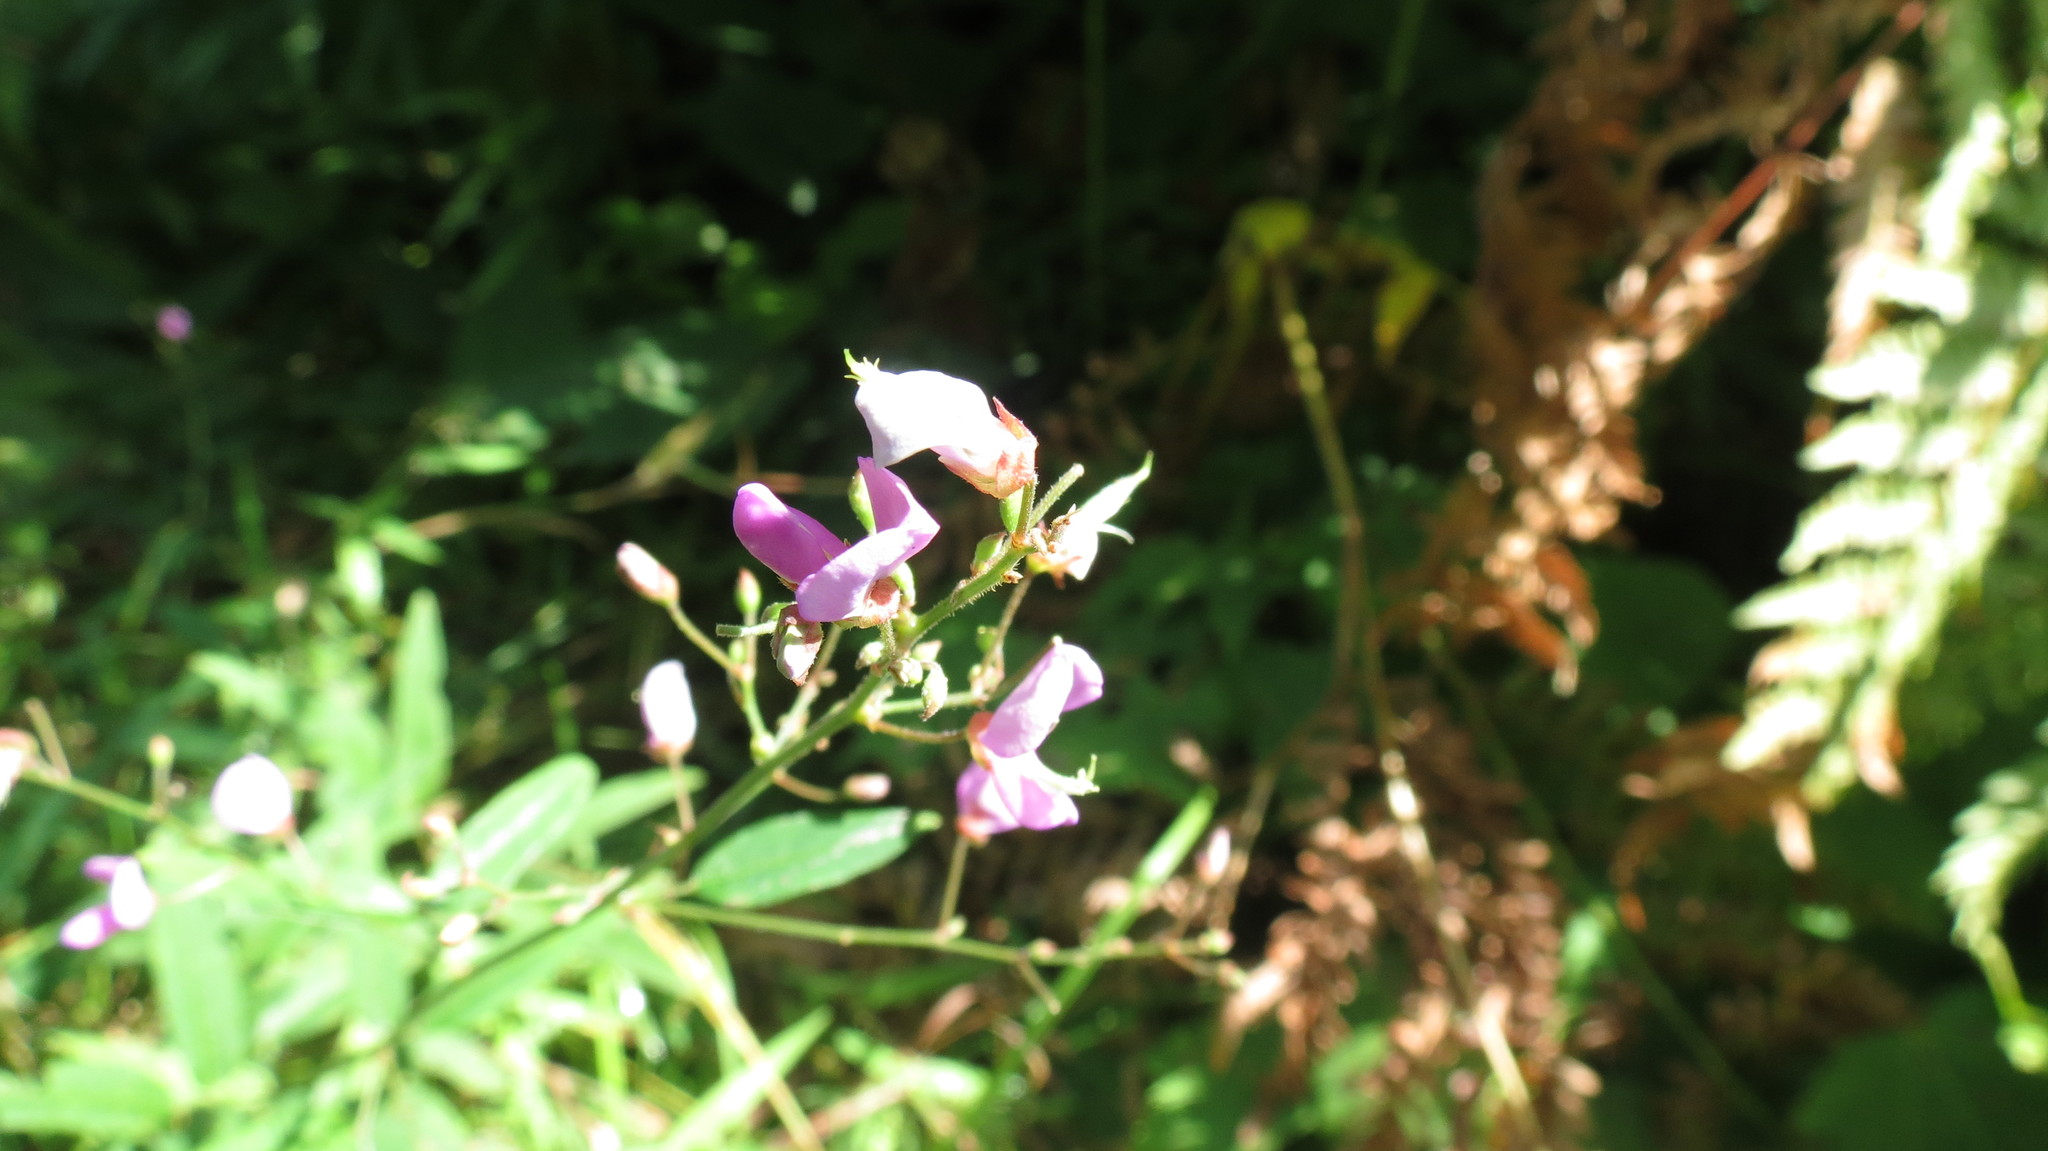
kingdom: Plantae
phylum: Tracheophyta
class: Magnoliopsida
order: Fabales
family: Fabaceae
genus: Desmodium
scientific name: Desmodium paniculatum
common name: Panicled tick-clover
